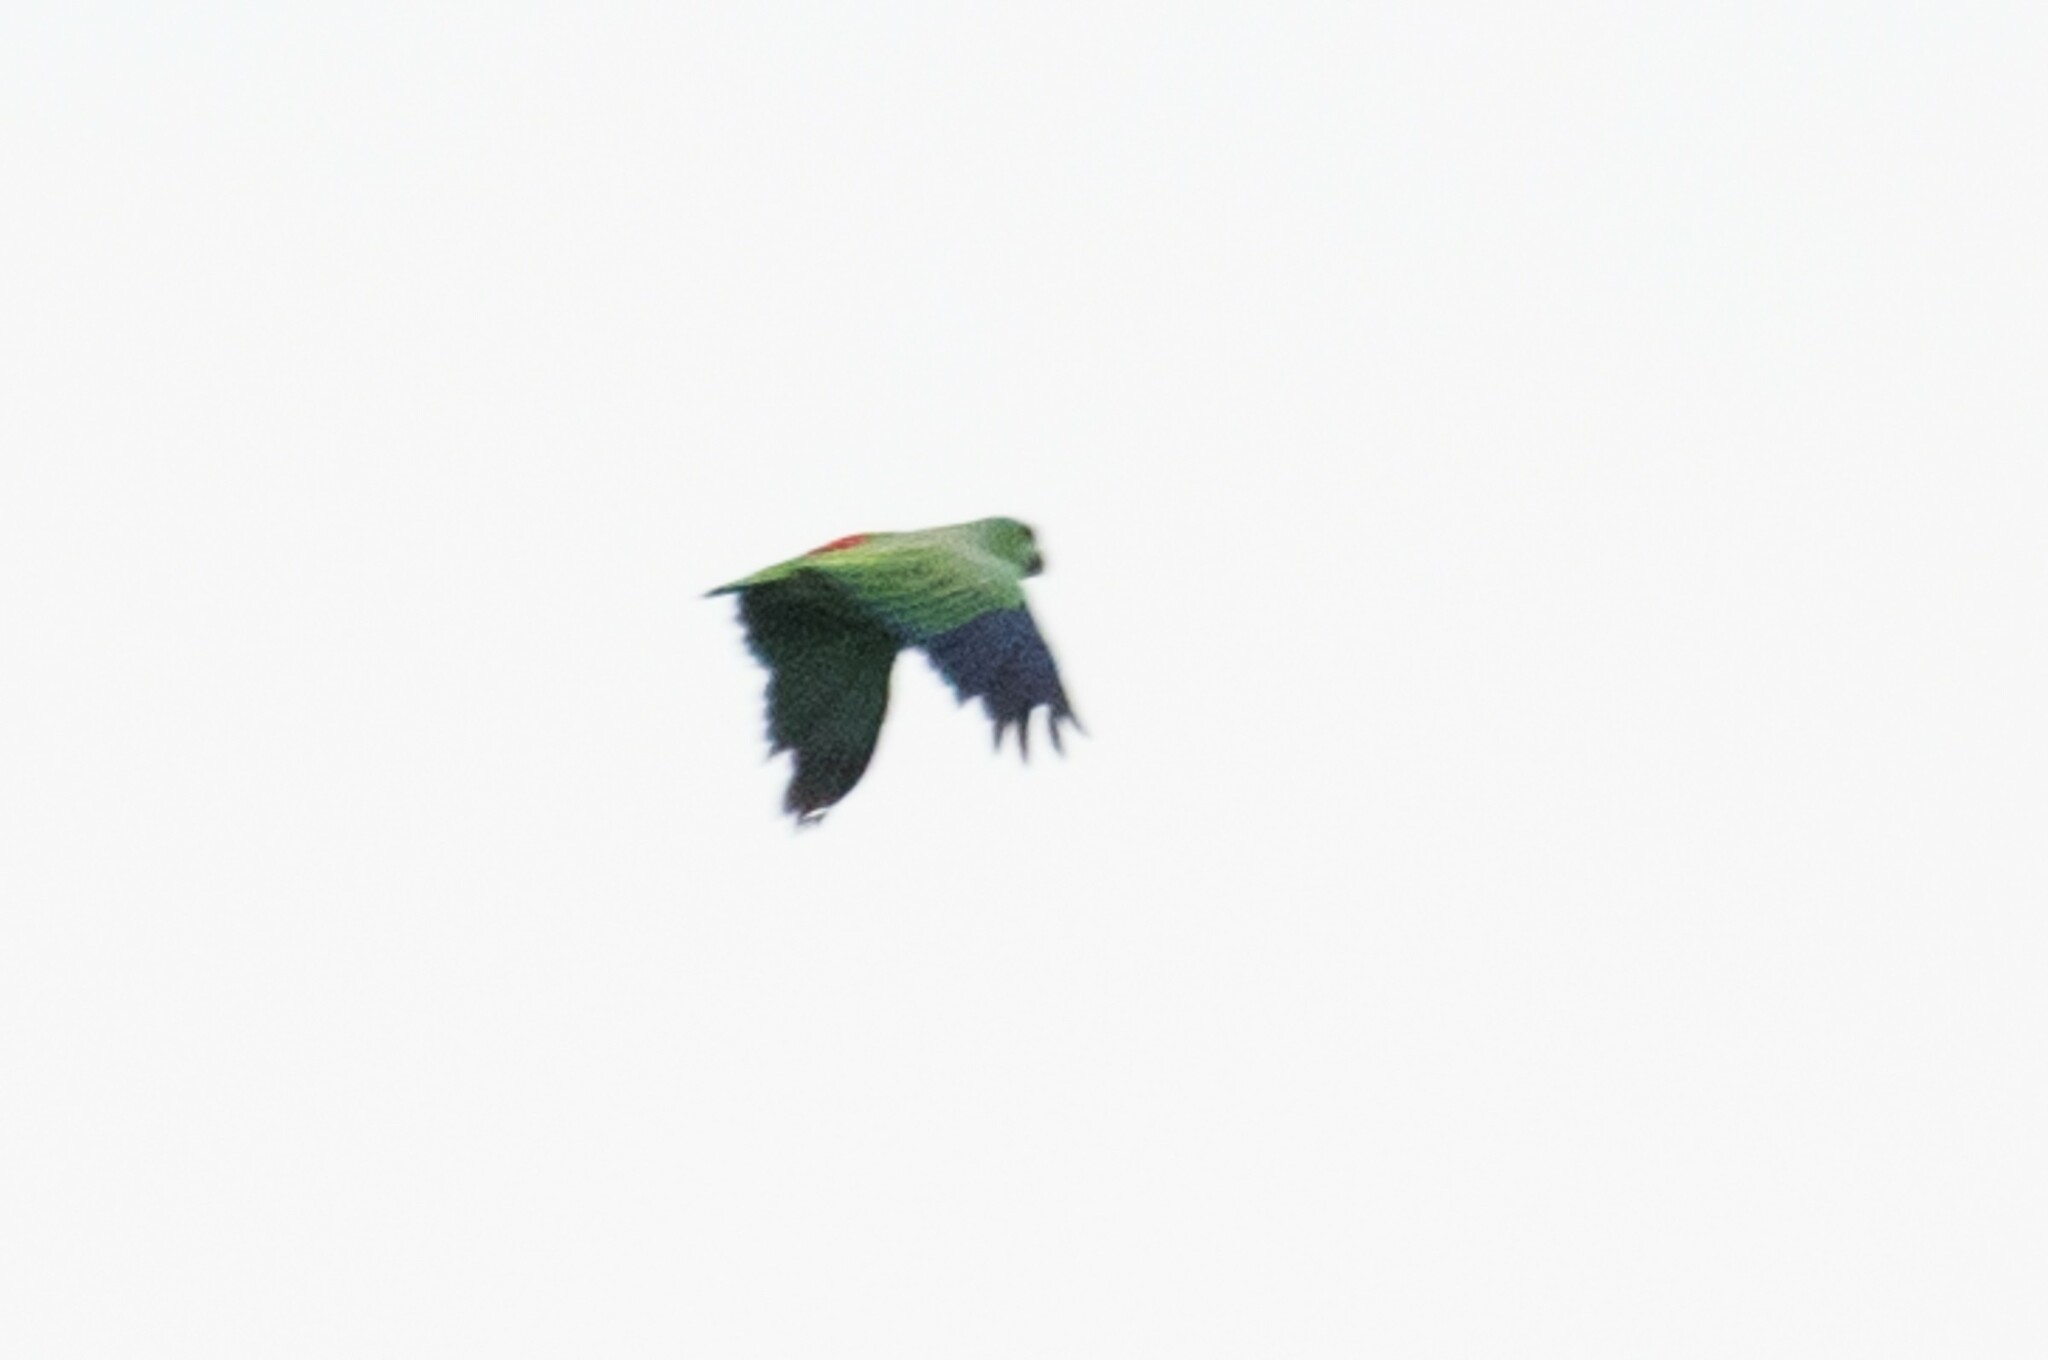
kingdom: Animalia
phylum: Chordata
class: Aves
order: Psittaciformes
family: Psittacidae
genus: Amazona
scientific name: Amazona festiva
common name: Festive amazon
